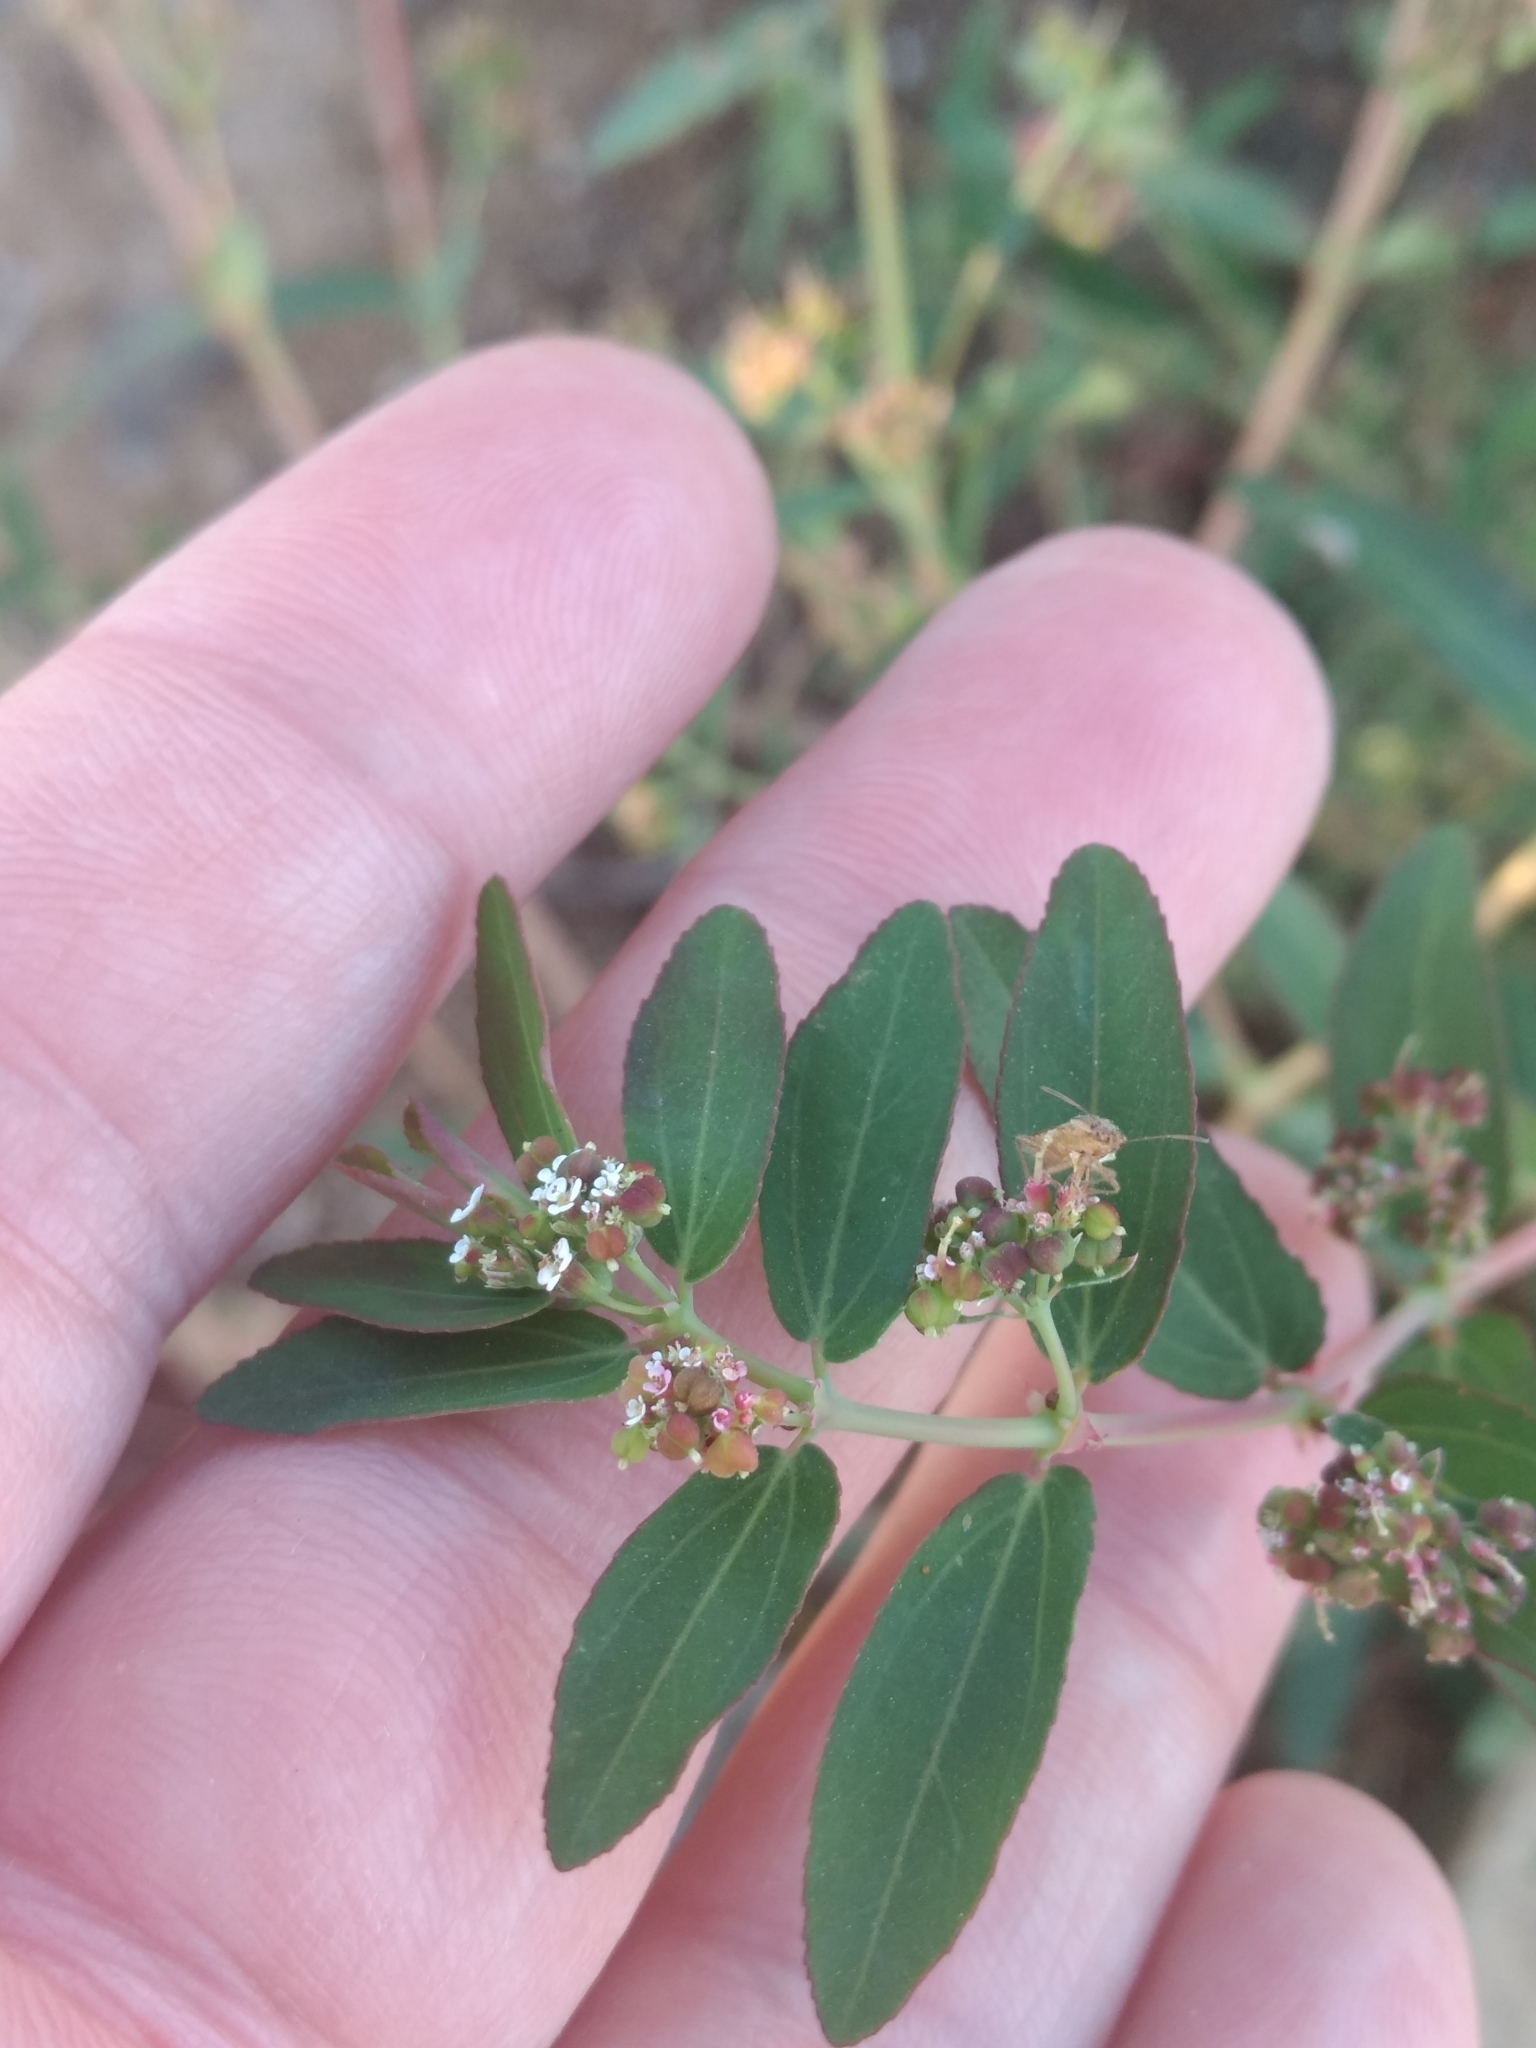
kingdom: Plantae
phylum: Tracheophyta
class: Magnoliopsida
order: Malpighiales
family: Euphorbiaceae
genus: Euphorbia
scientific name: Euphorbia hypericifolia
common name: Graceful sandmat
